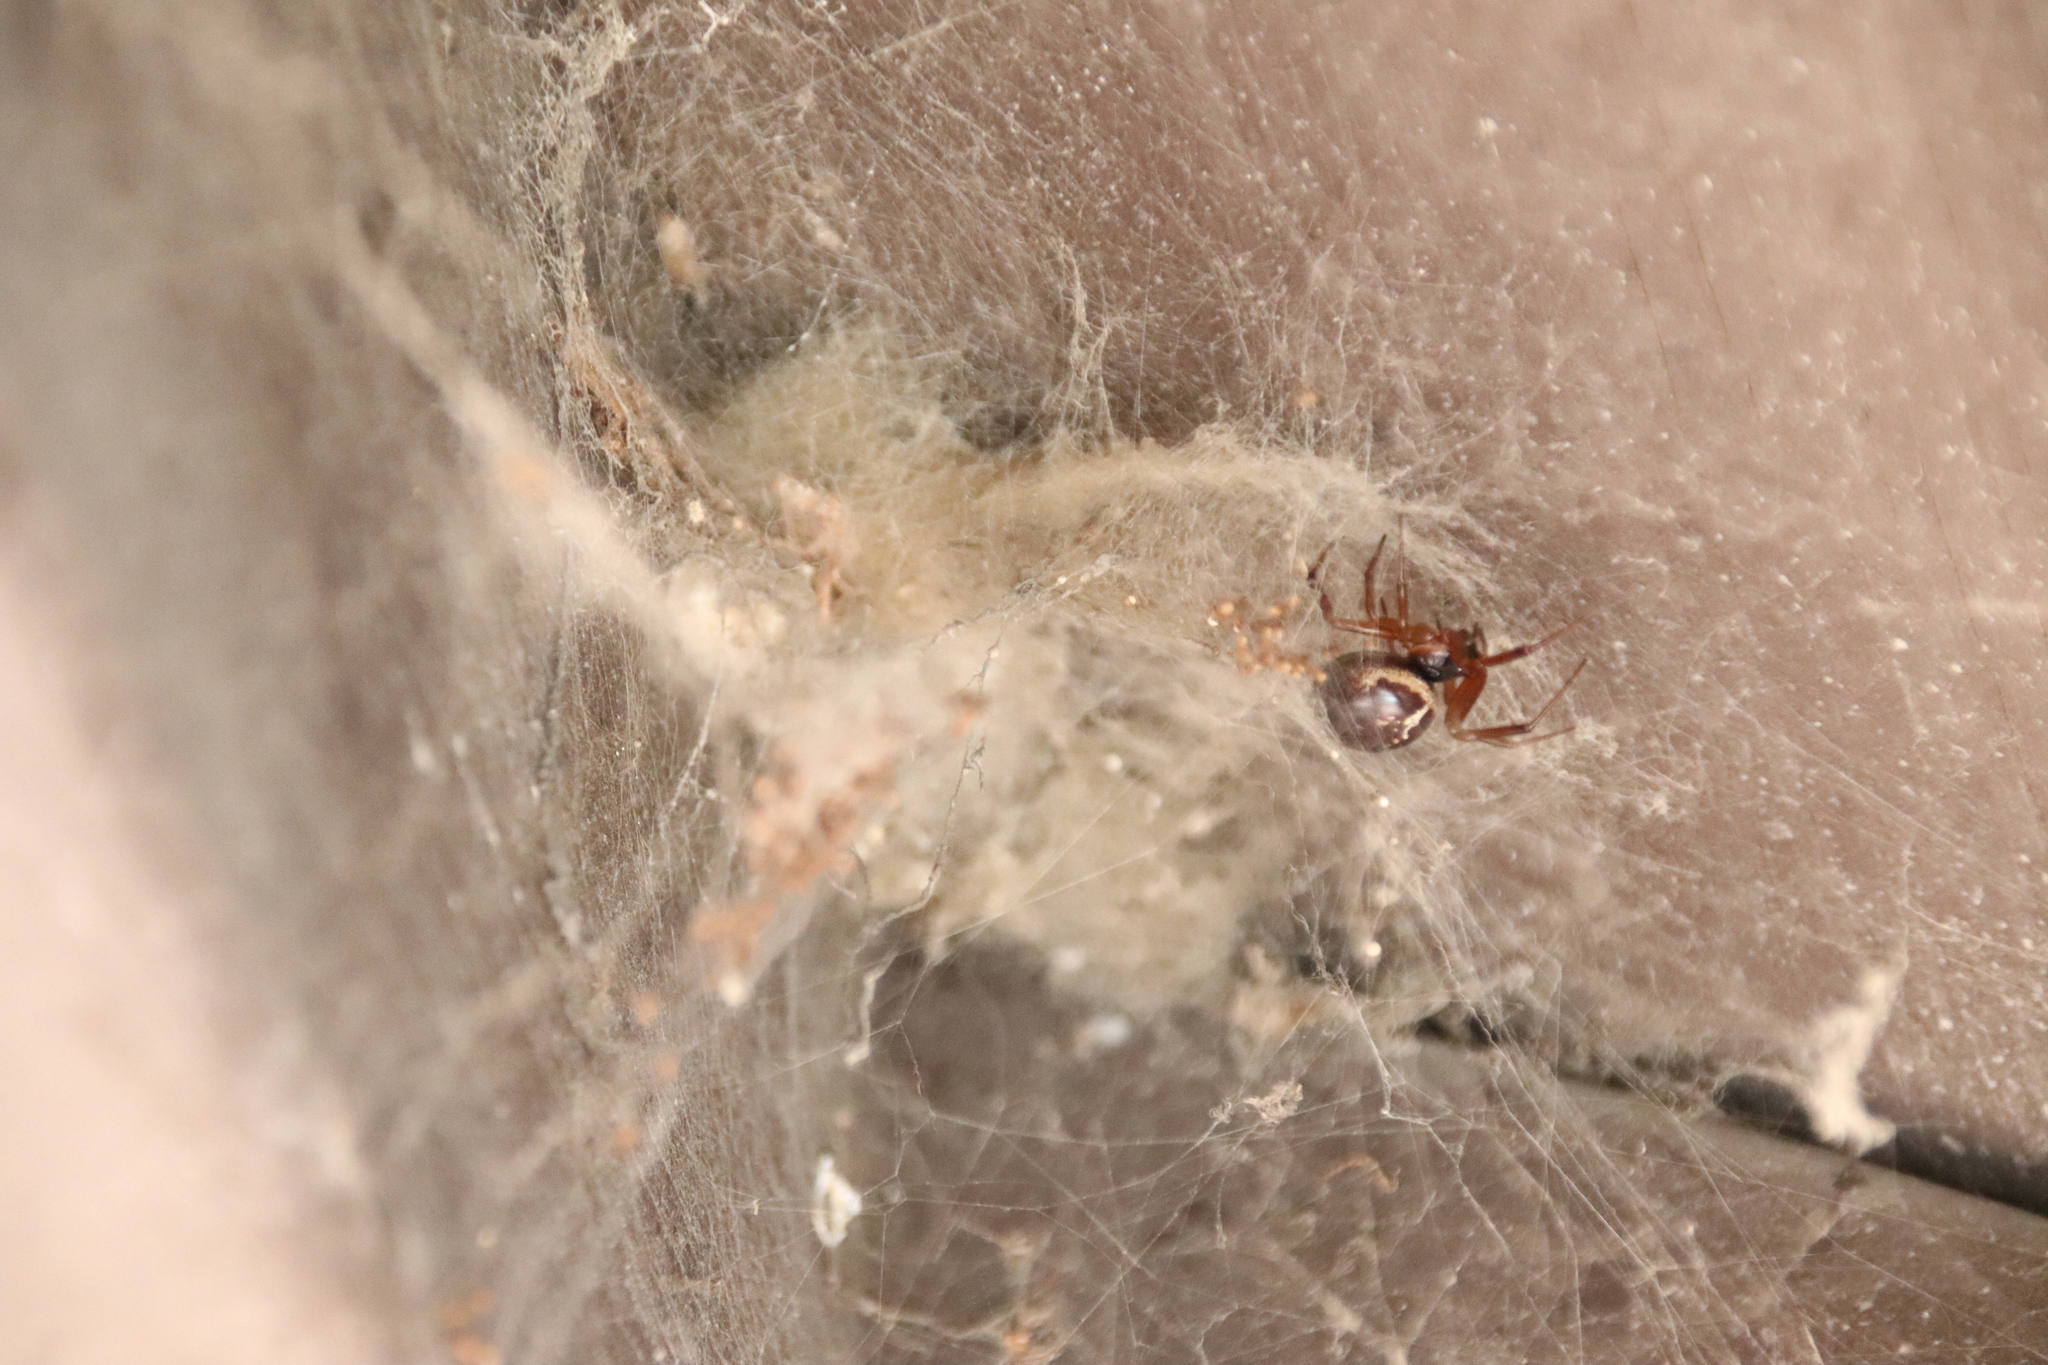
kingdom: Animalia
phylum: Arthropoda
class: Arachnida
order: Araneae
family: Theridiidae
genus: Steatoda
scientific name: Steatoda nobilis
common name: Cobweb weaver
